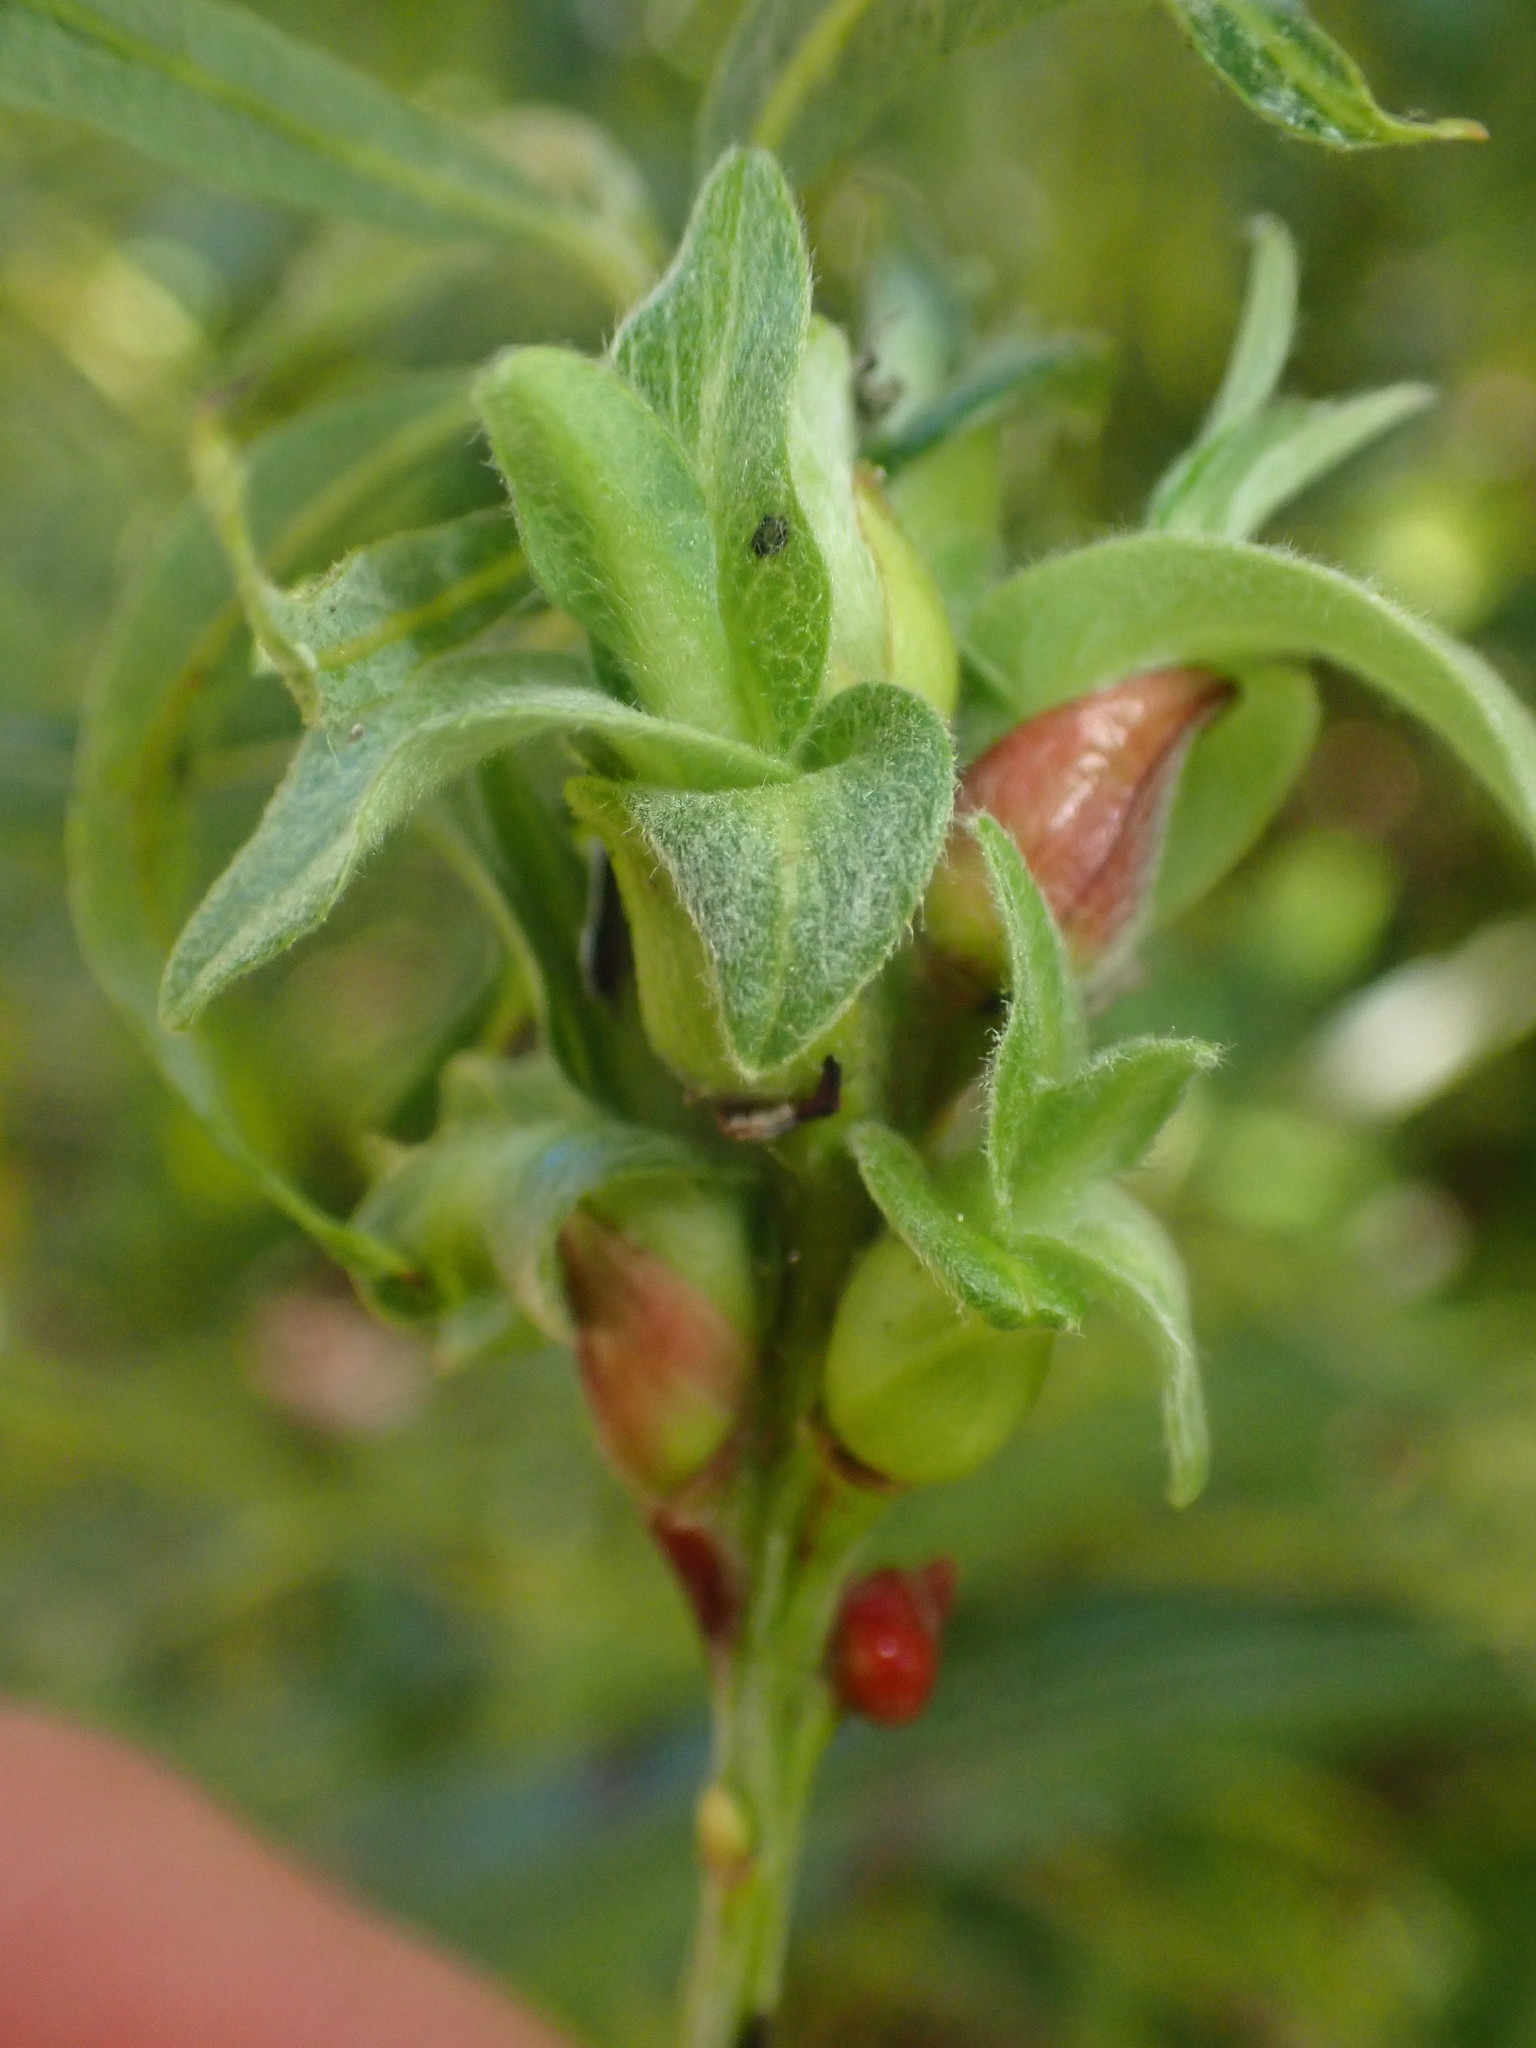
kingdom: Animalia
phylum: Arthropoda
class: Insecta
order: Diptera
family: Cecidomyiidae
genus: Rabdophaga
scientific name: Rabdophaga salicisbrassicoides
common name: Willow cabbagegall midge
